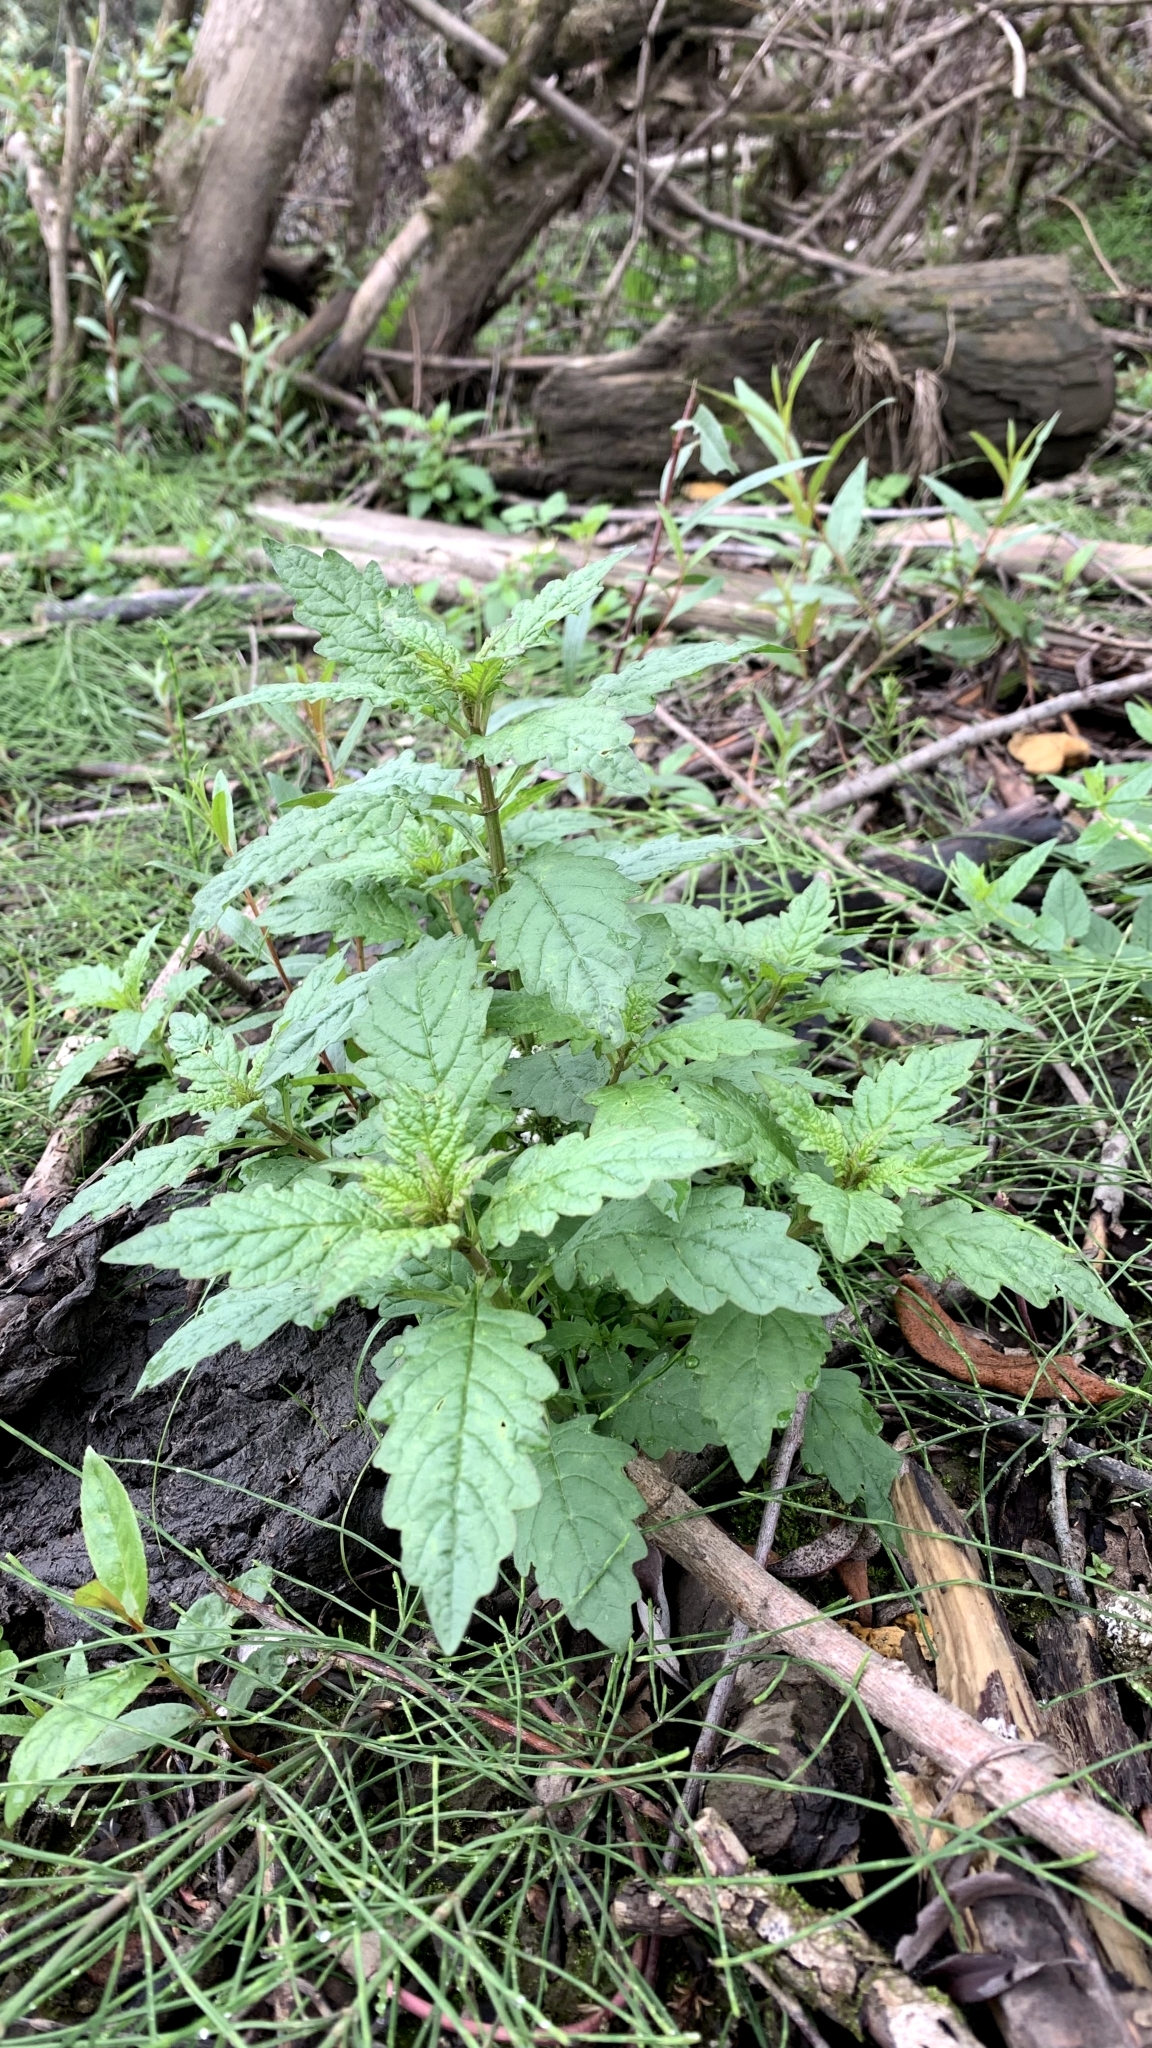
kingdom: Plantae
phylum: Tracheophyta
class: Magnoliopsida
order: Lamiales
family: Lamiaceae
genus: Lycopus
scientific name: Lycopus europaeus
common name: European bugleweed
